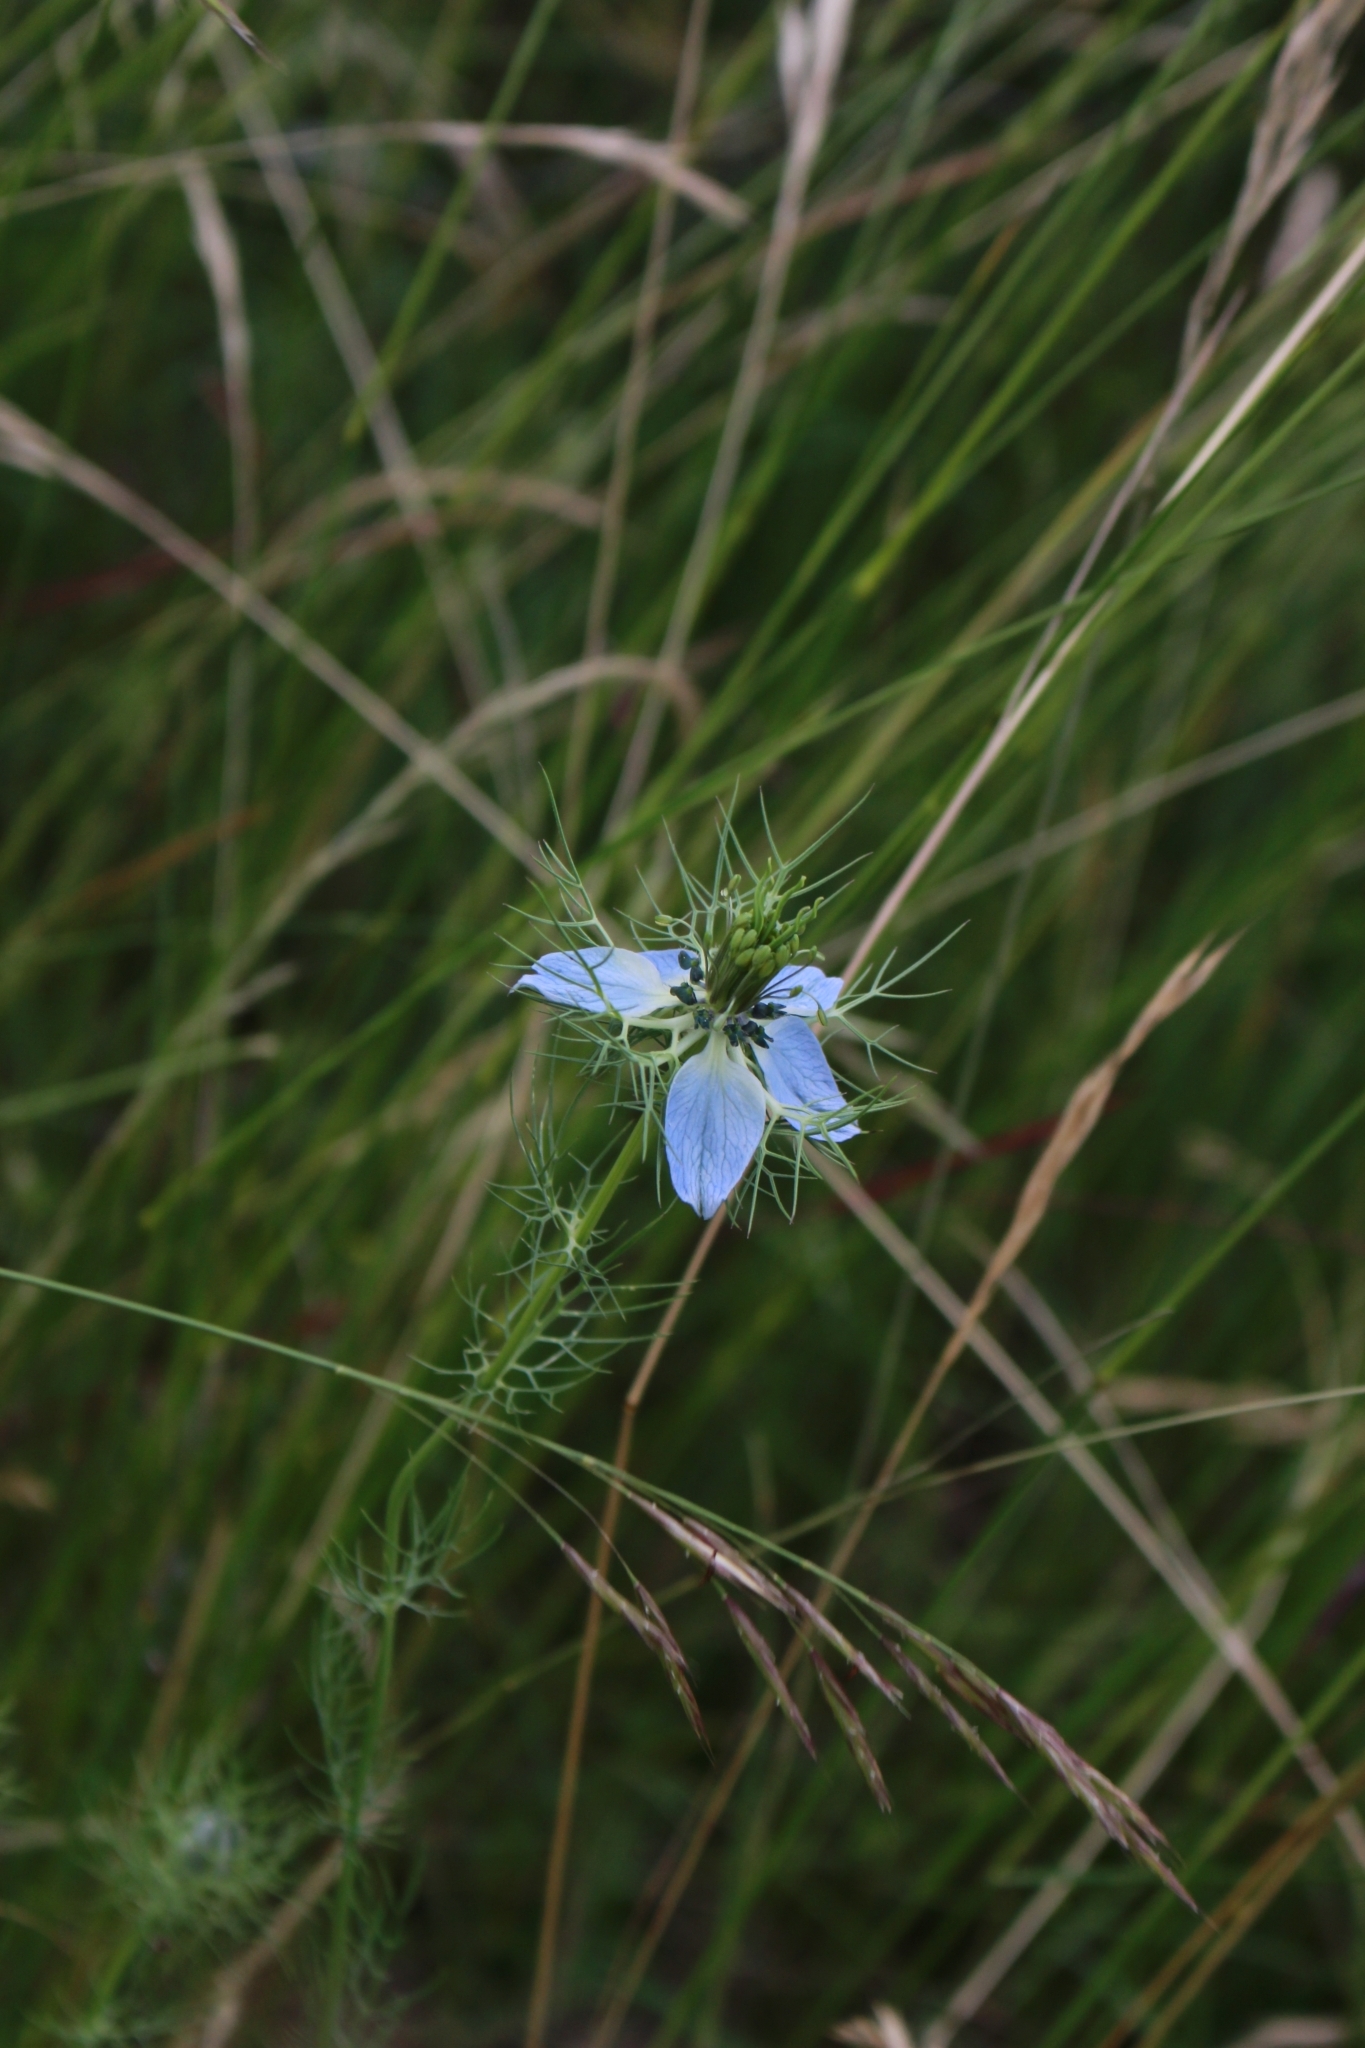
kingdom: Plantae
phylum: Tracheophyta
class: Magnoliopsida
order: Ranunculales
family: Ranunculaceae
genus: Nigella
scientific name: Nigella damascena
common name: Love-in-a-mist
